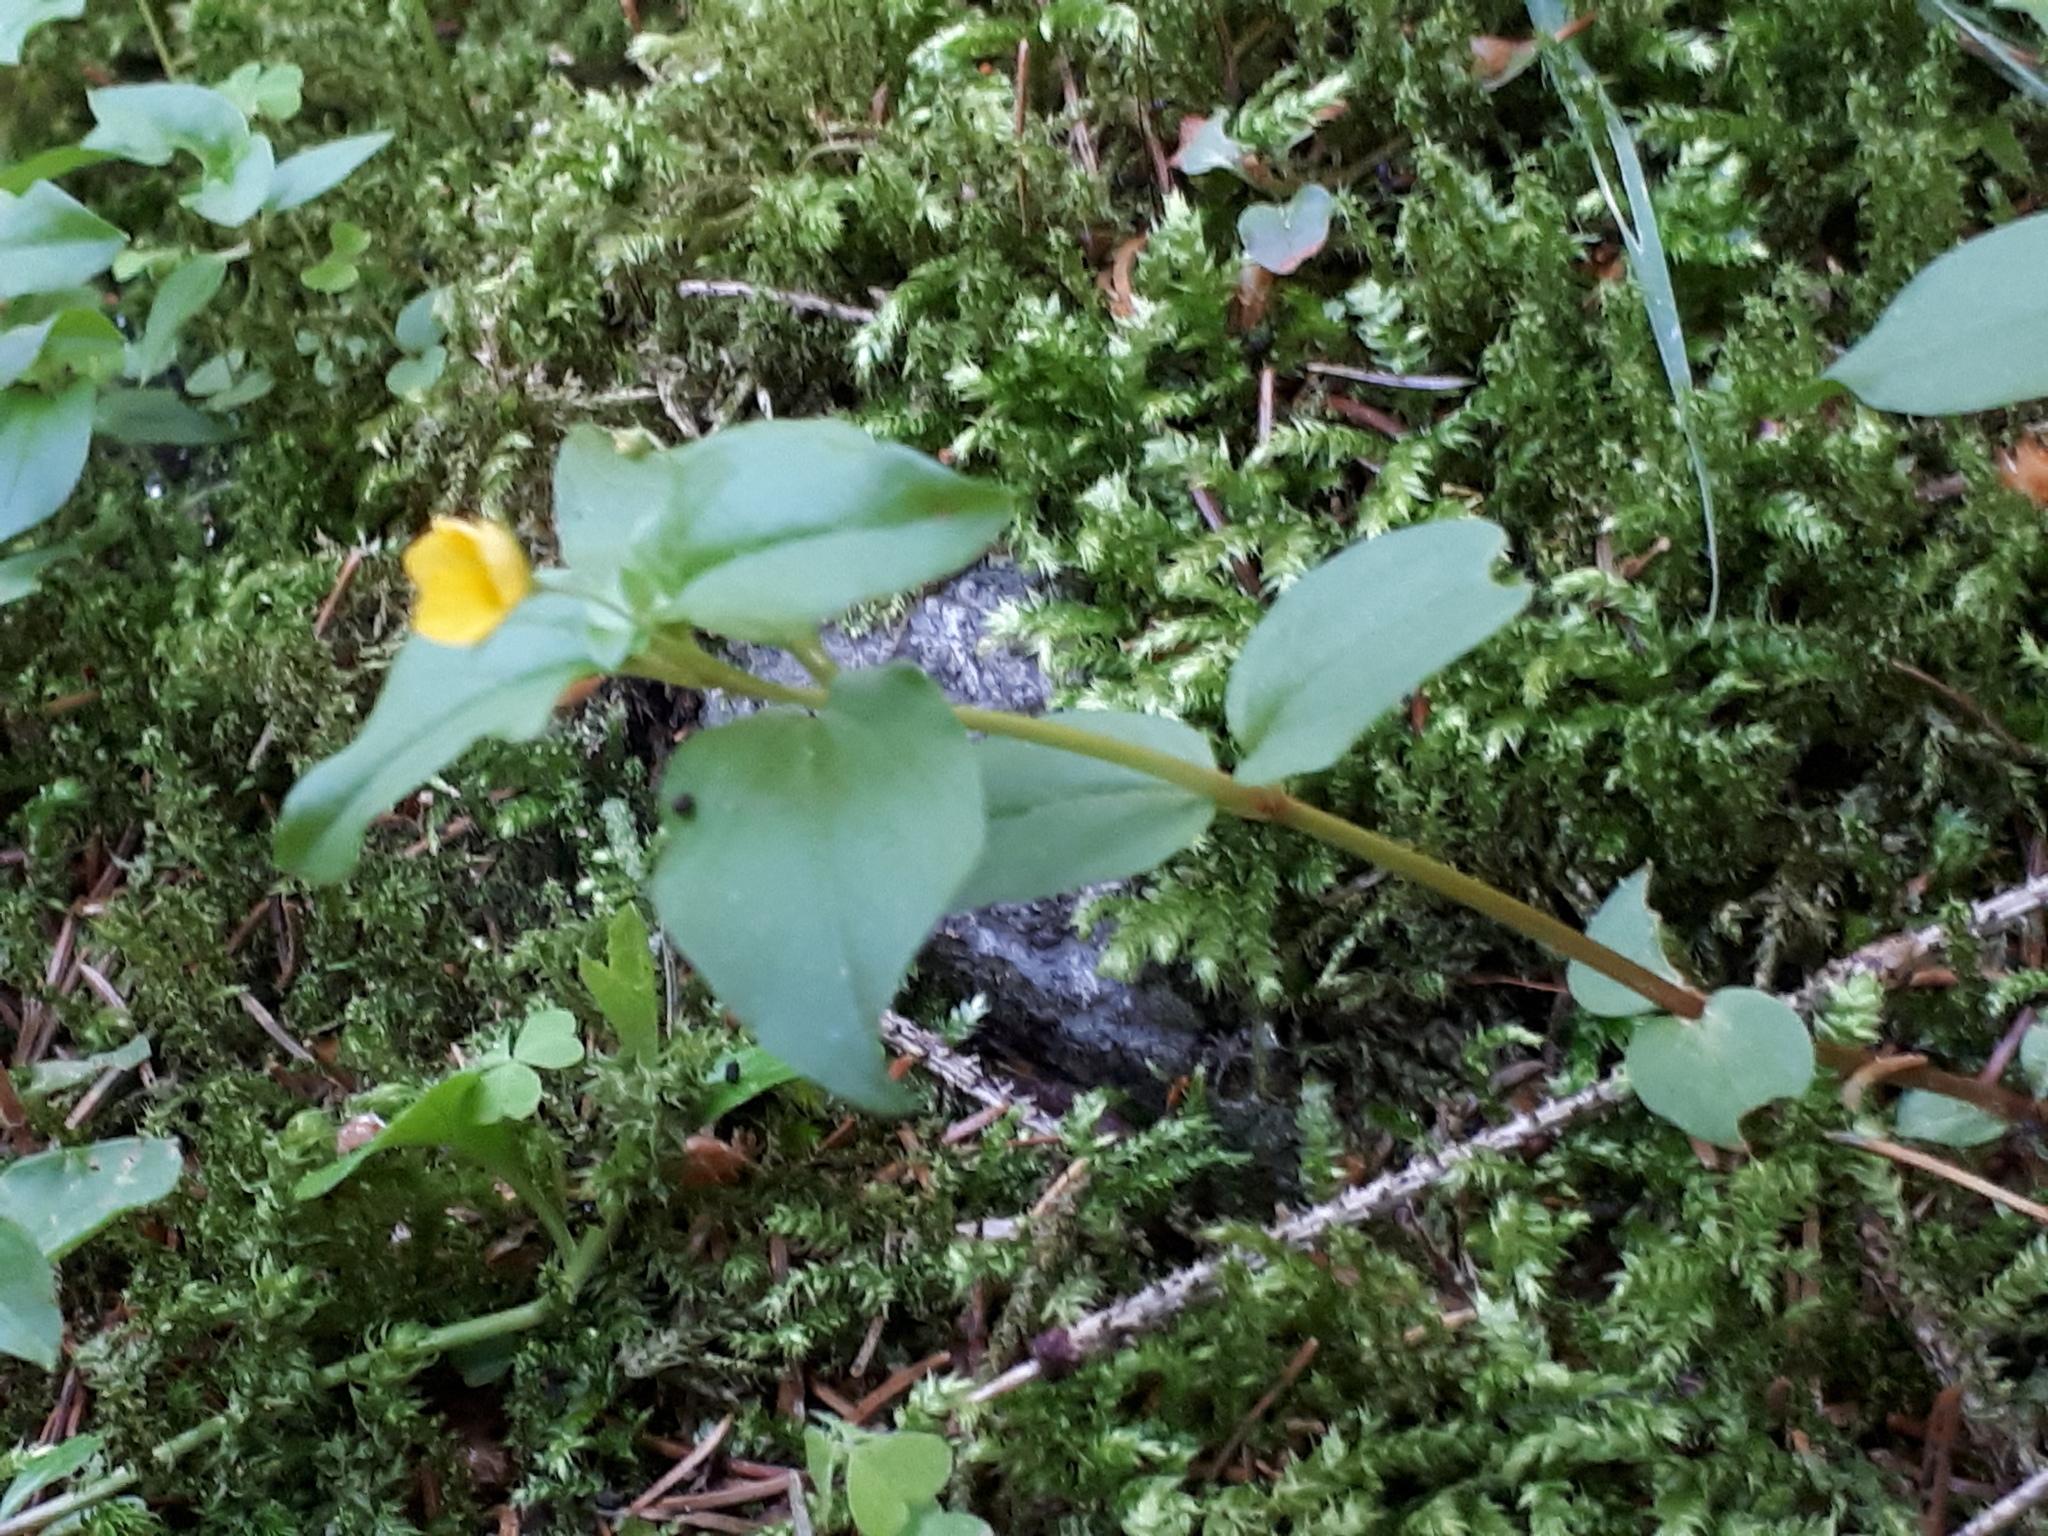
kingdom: Plantae
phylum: Tracheophyta
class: Magnoliopsida
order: Ericales
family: Primulaceae
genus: Lysimachia
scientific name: Lysimachia nemorum
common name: Yellow pimpernel
